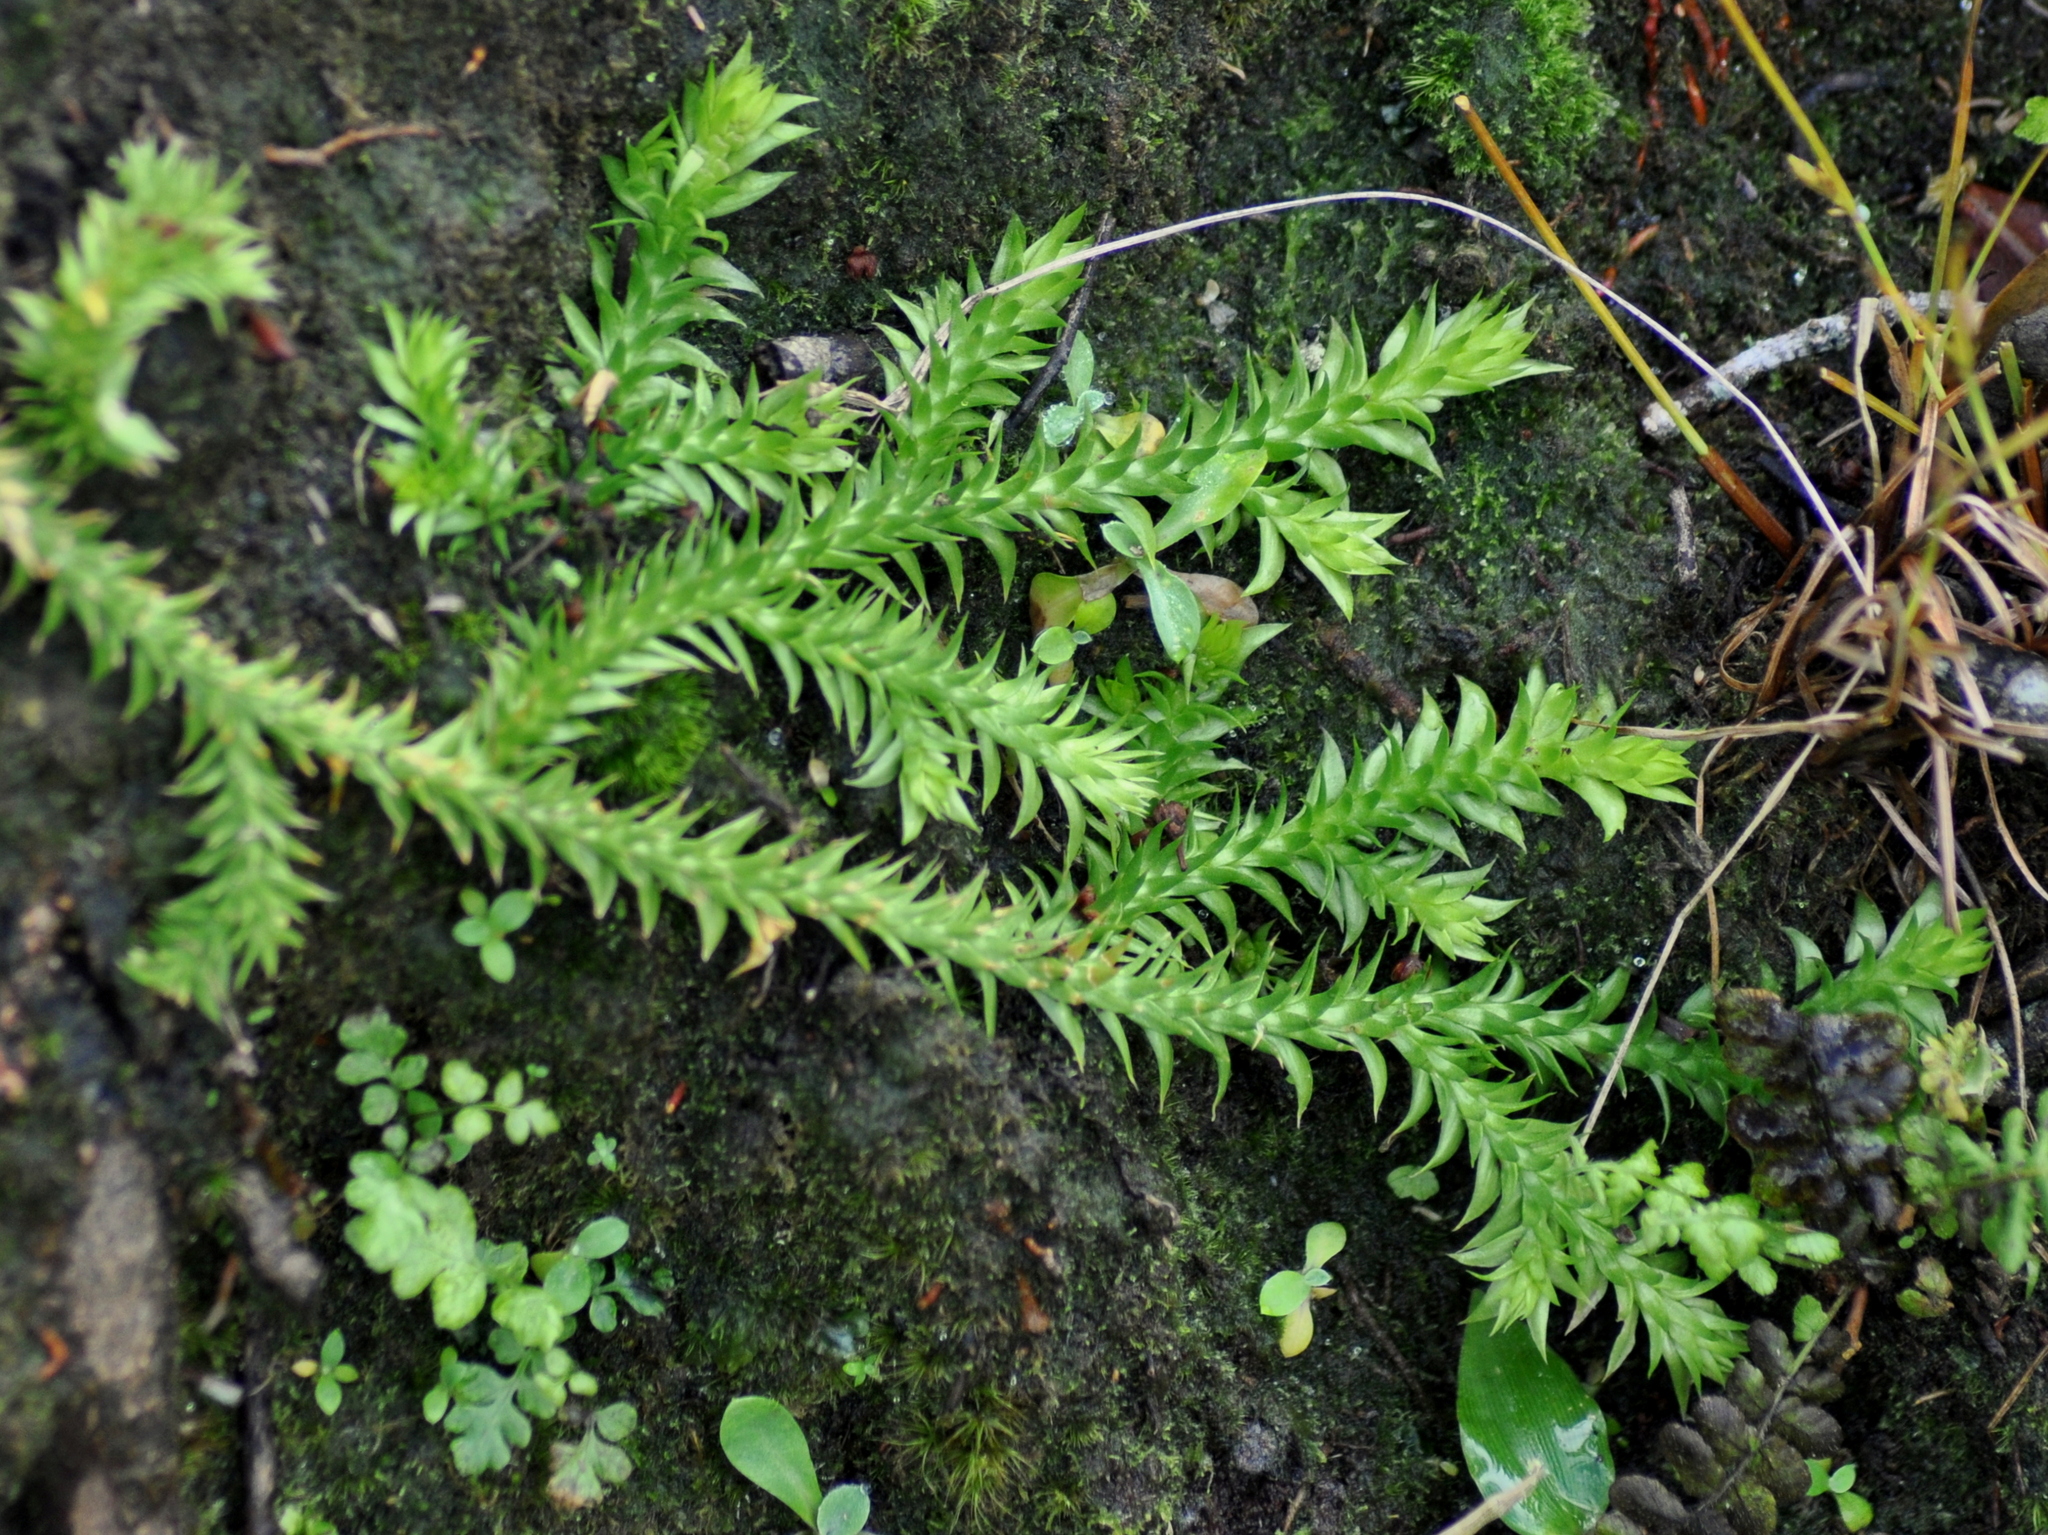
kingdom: Plantae
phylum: Tracheophyta
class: Lycopodiopsida
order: Lycopodiales
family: Lycopodiaceae
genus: Pseudolycopodiella
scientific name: Pseudolycopodiella meridionalis
